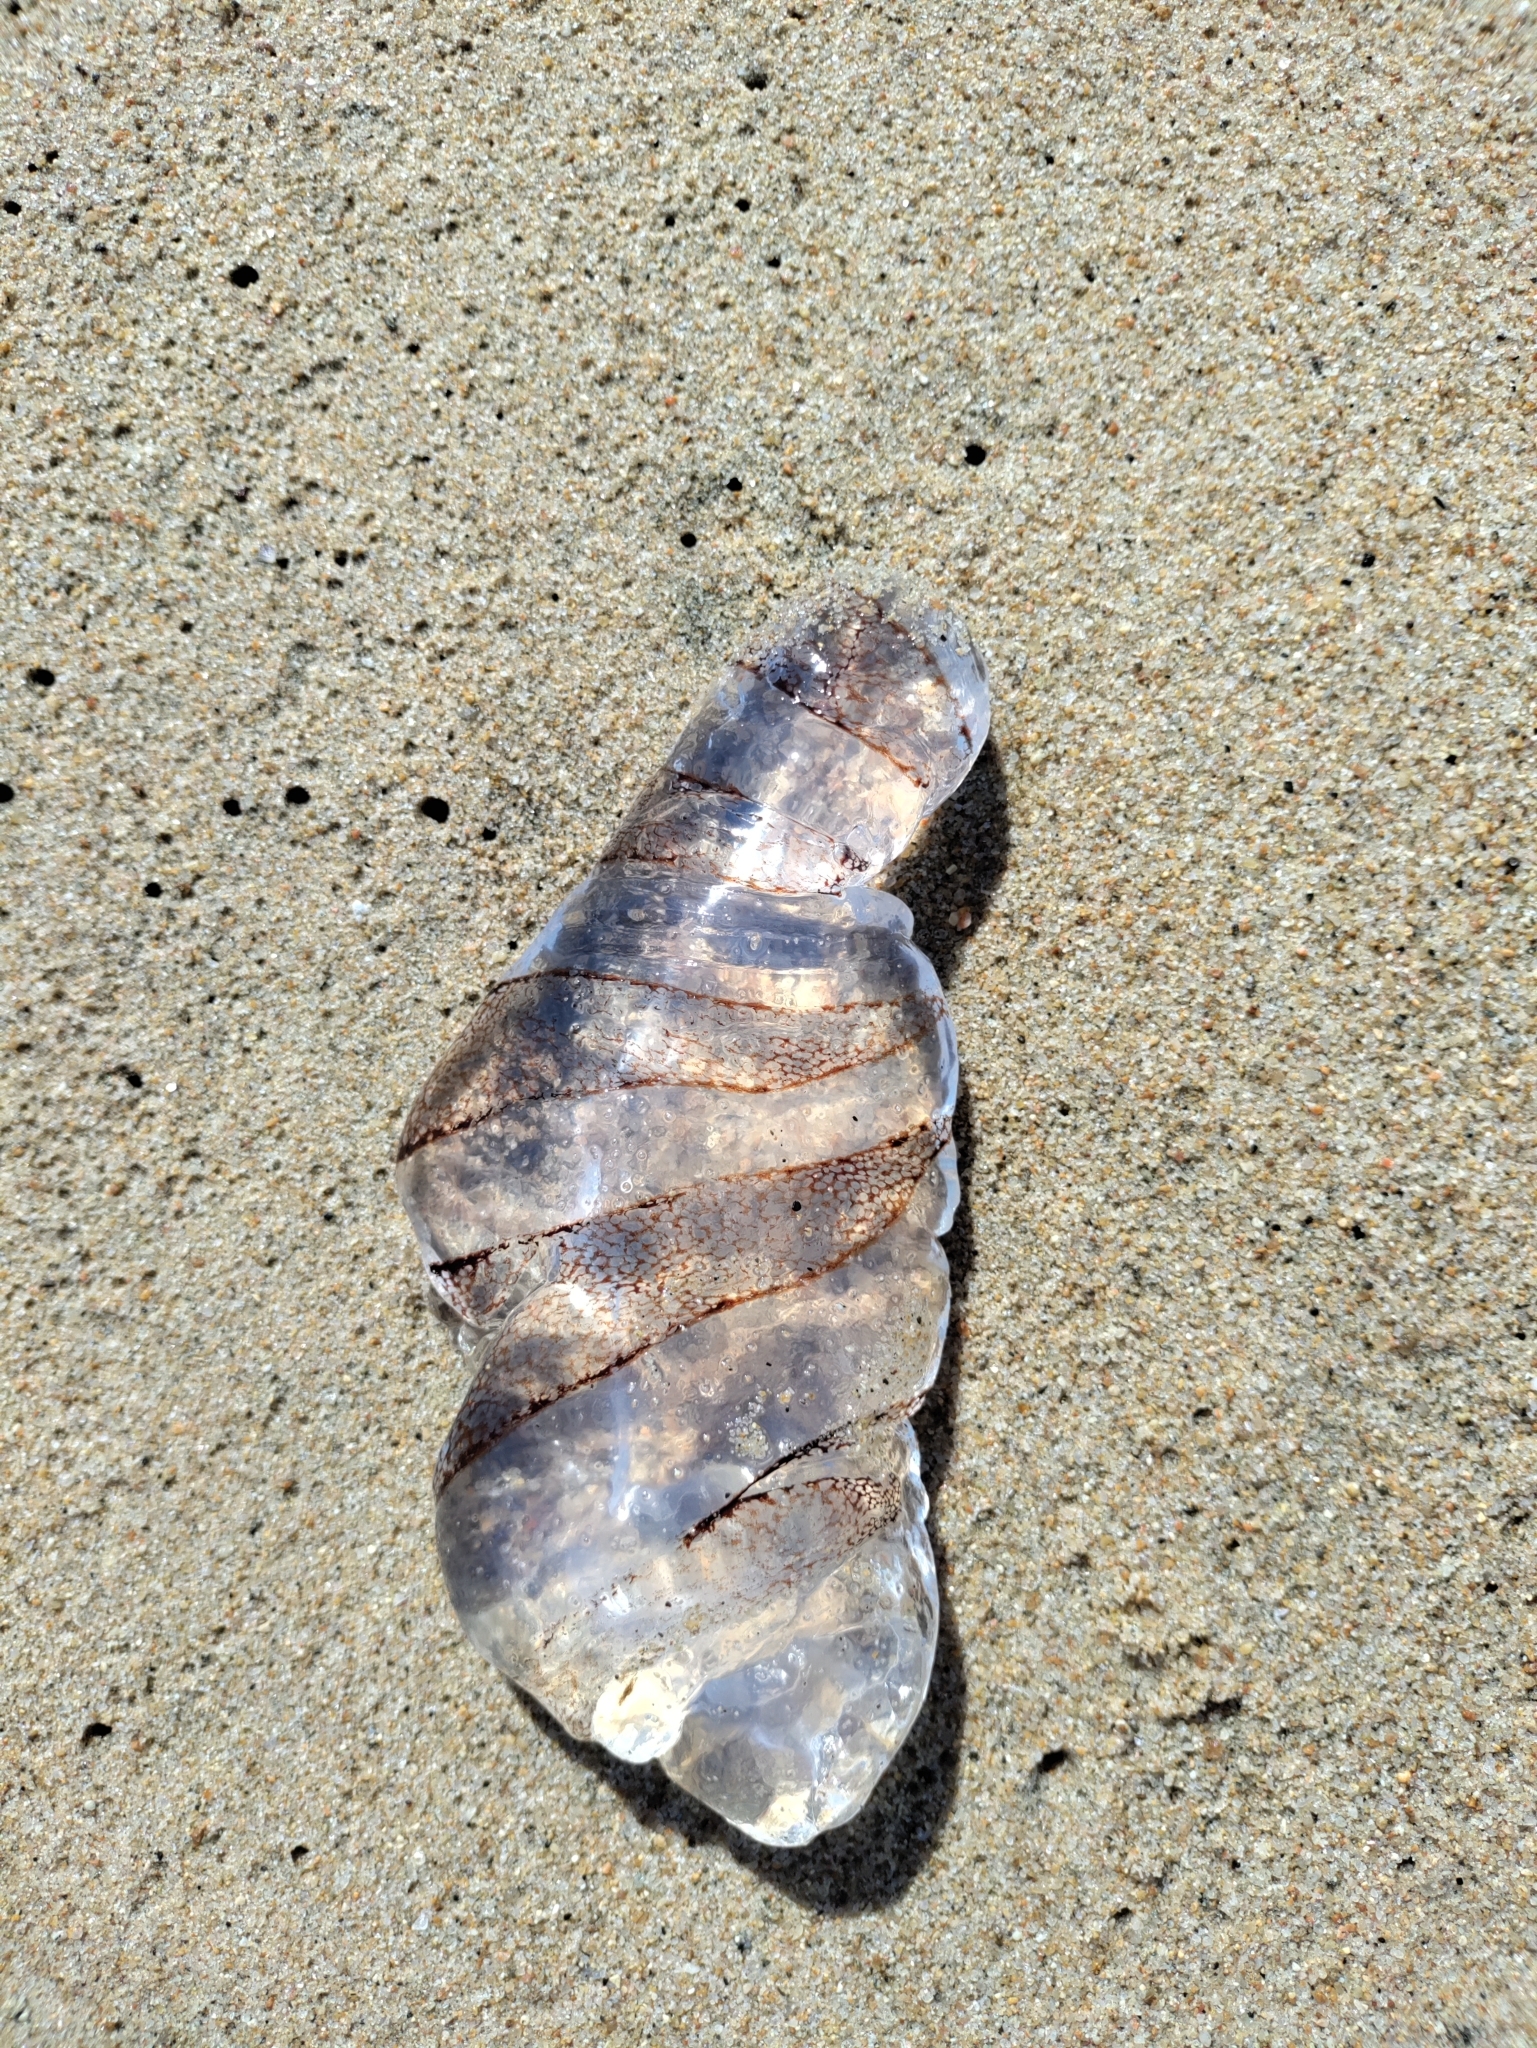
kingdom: Animalia
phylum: Cnidaria
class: Scyphozoa
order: Semaeostomeae
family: Pelagiidae
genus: Chrysaora
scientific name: Chrysaora plocamia
